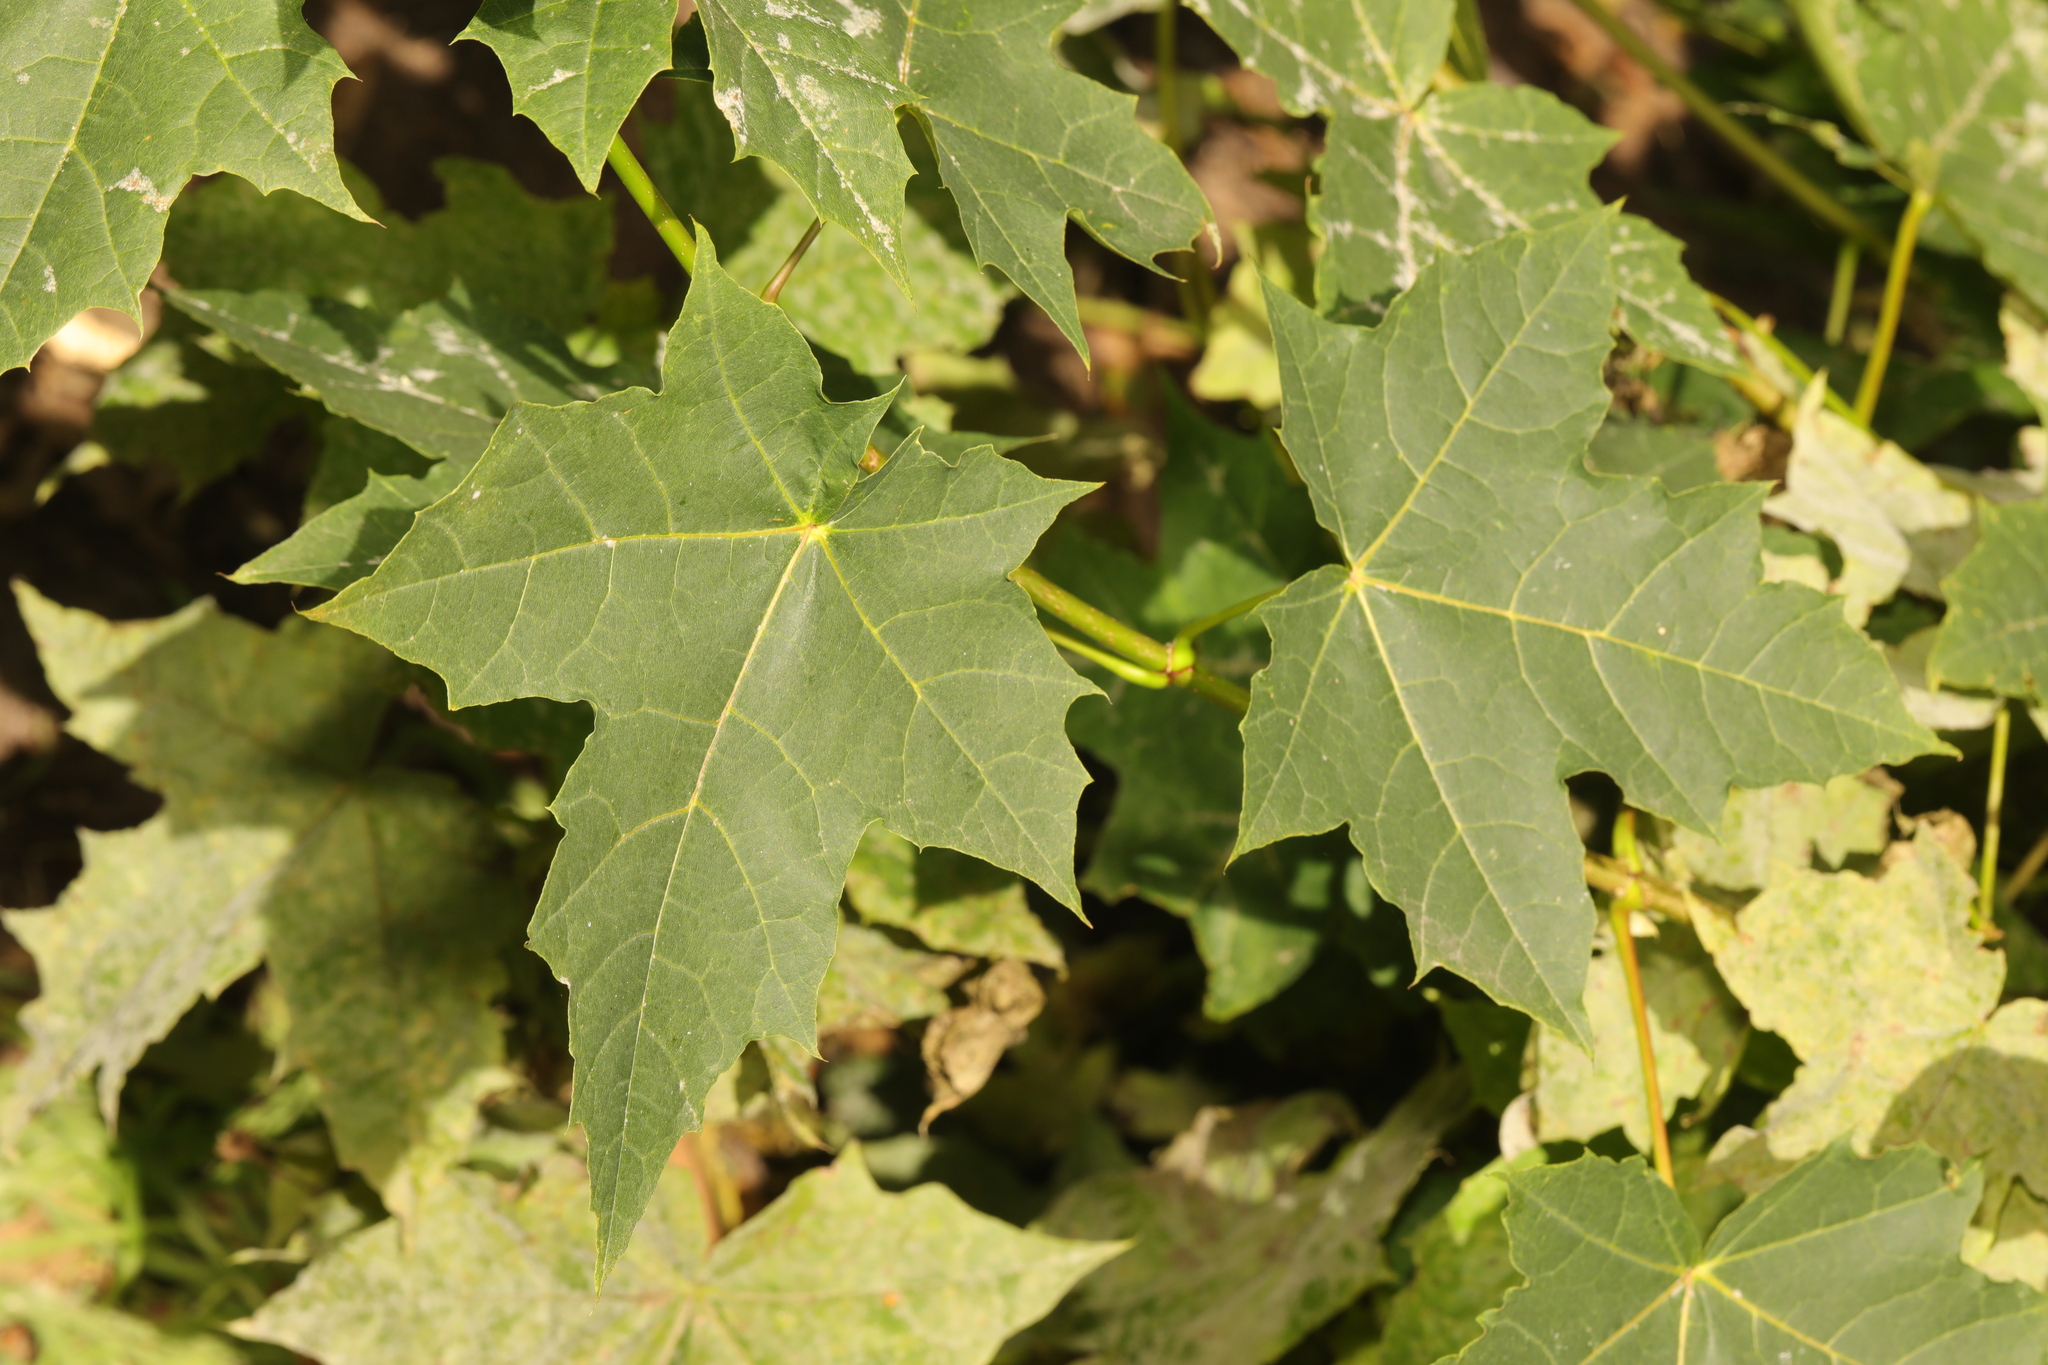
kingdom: Plantae
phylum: Tracheophyta
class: Magnoliopsida
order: Sapindales
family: Sapindaceae
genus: Acer
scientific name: Acer platanoides
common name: Norway maple
